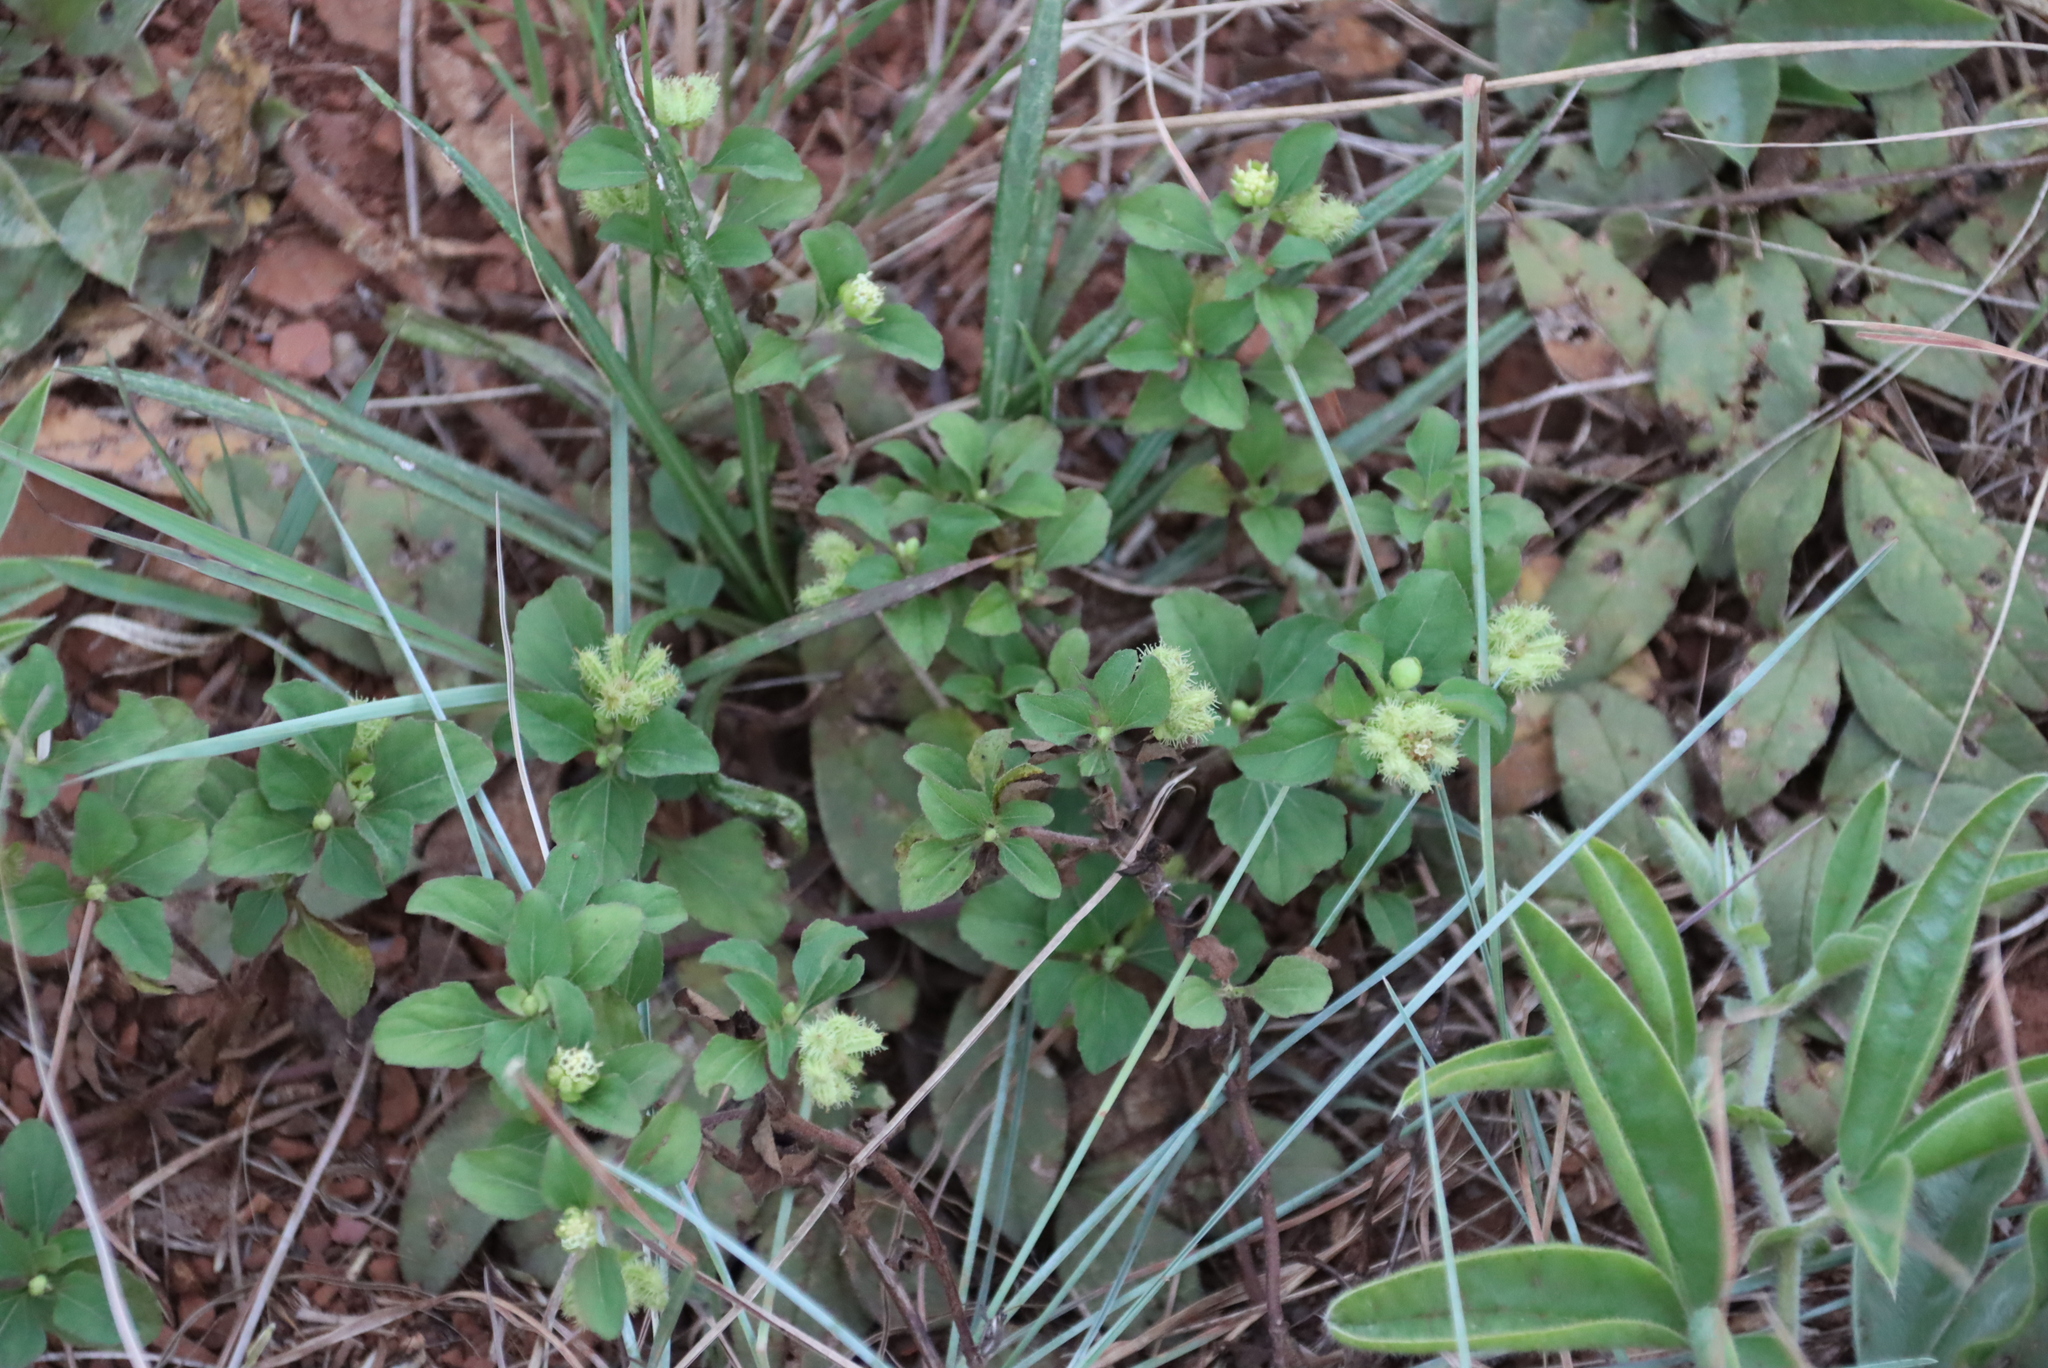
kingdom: Plantae
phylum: Tracheophyta
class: Magnoliopsida
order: Asterales
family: Asteraceae
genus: Acanthospermum
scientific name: Acanthospermum australe
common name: Paraguayan starbur
